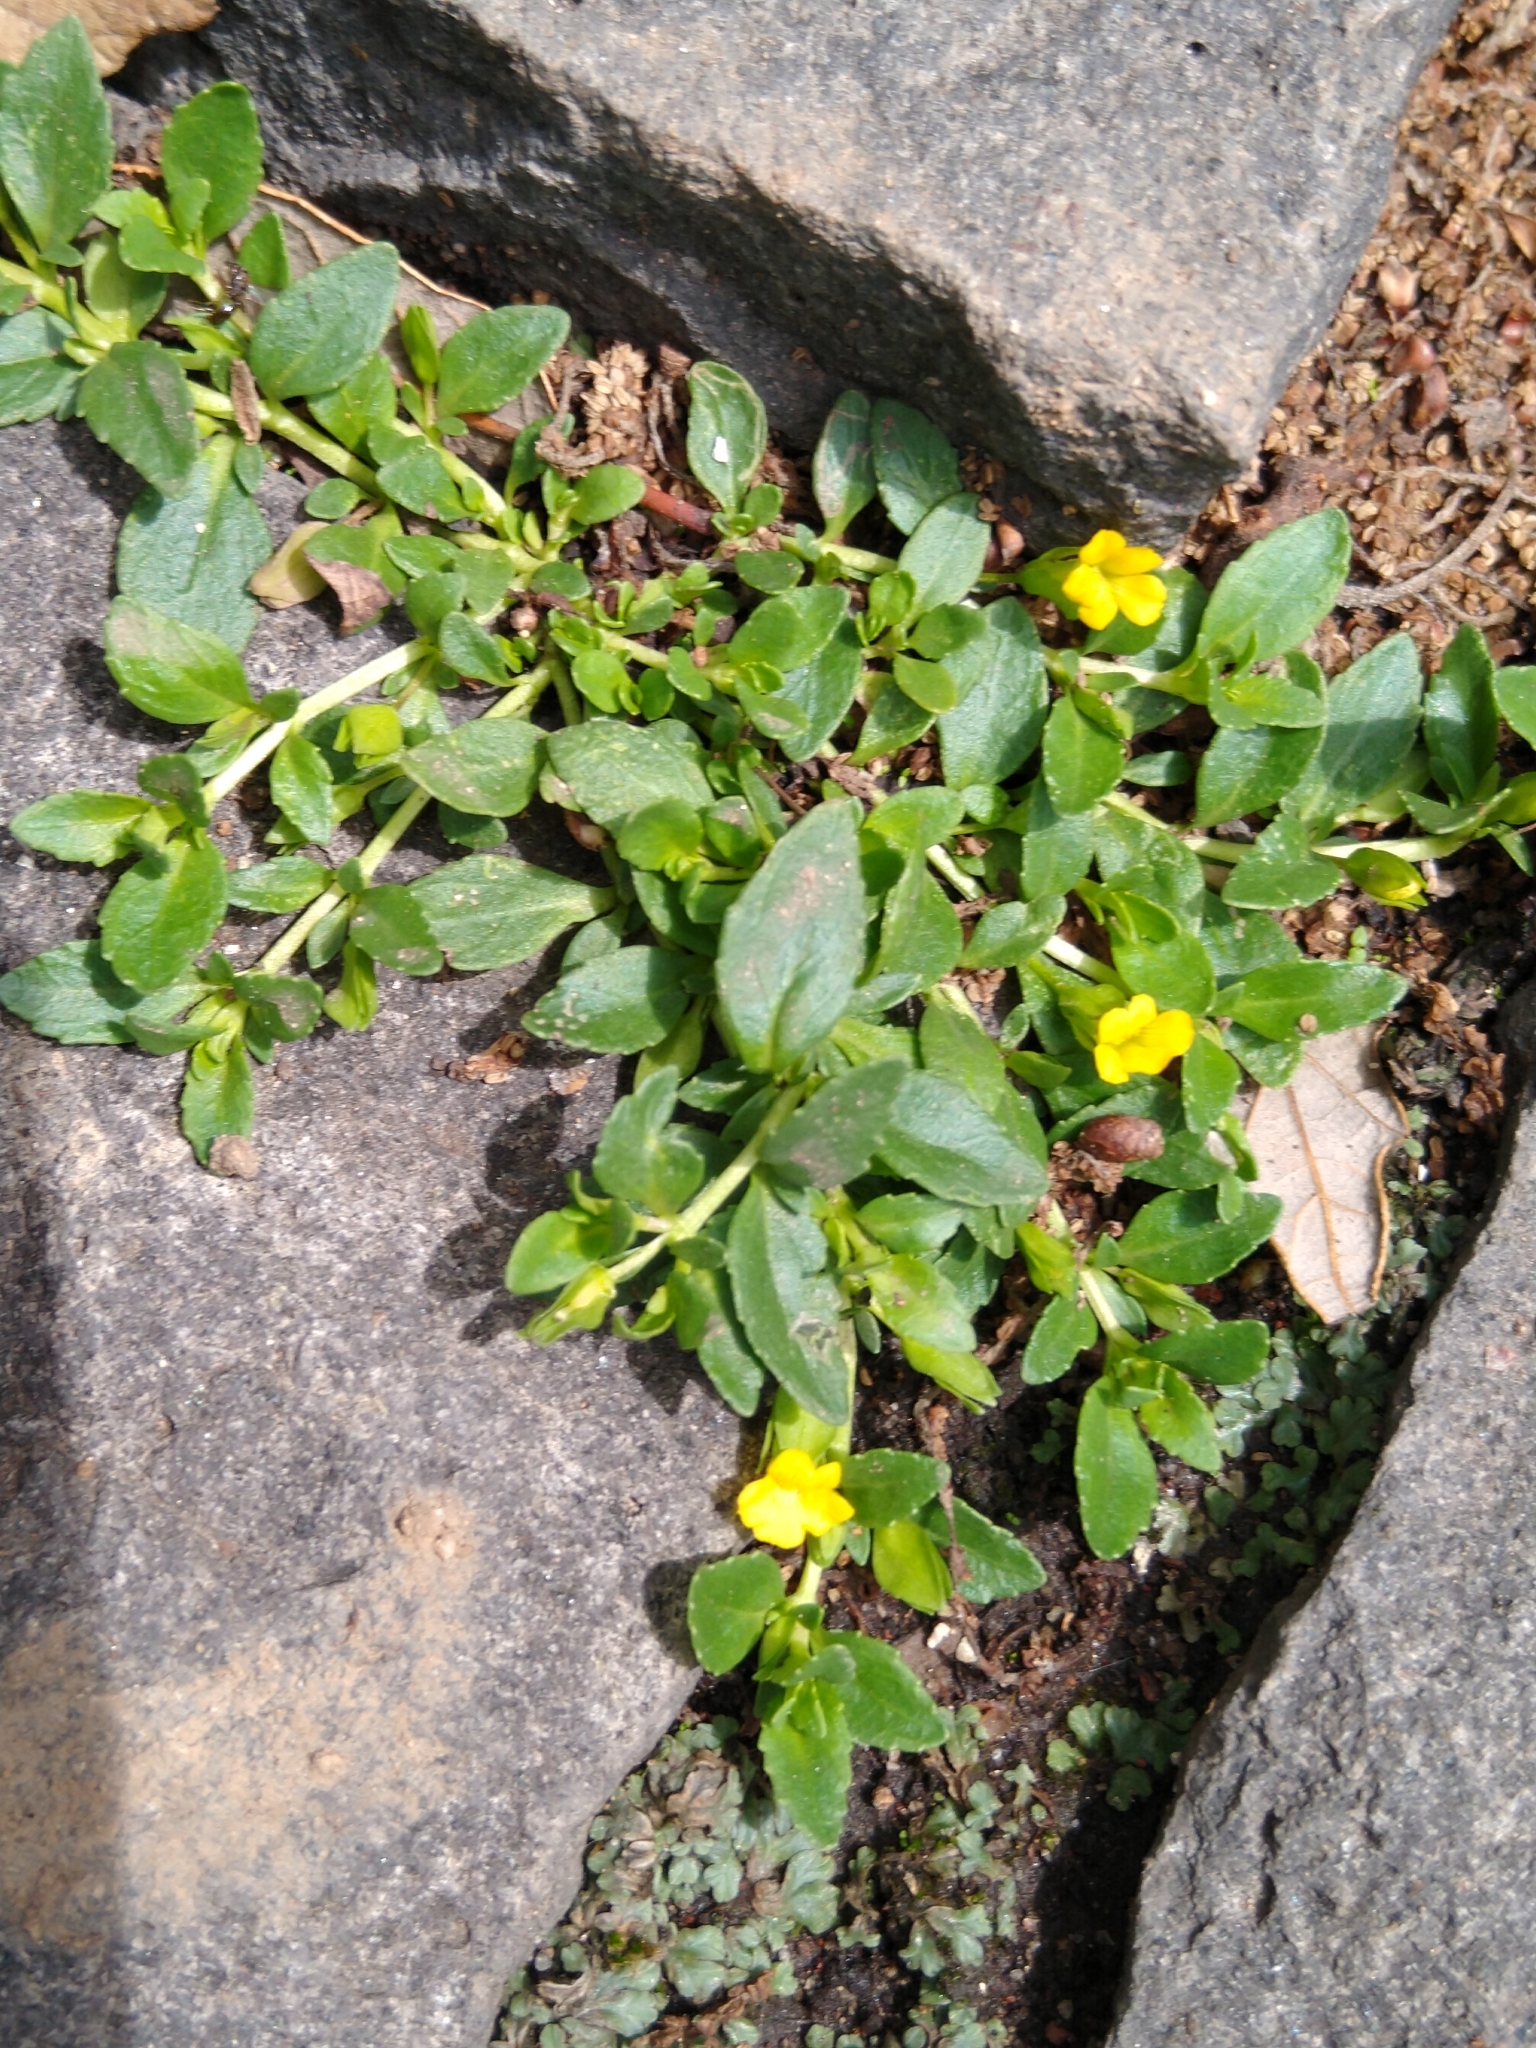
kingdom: Plantae
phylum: Tracheophyta
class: Magnoliopsida
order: Lamiales
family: Plantaginaceae
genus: Mecardonia
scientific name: Mecardonia procumbens
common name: Baby jump-up
